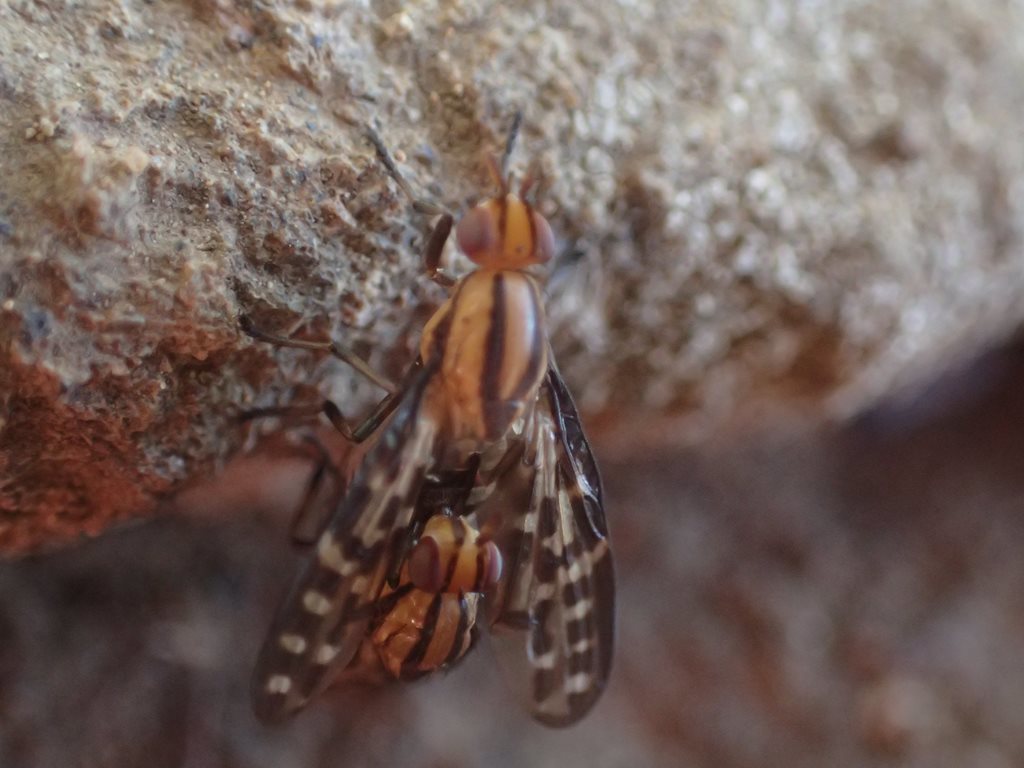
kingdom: Animalia
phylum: Arthropoda
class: Insecta
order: Diptera
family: Lauxaniidae
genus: Sapromyza
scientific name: Sapromyza magnifica
